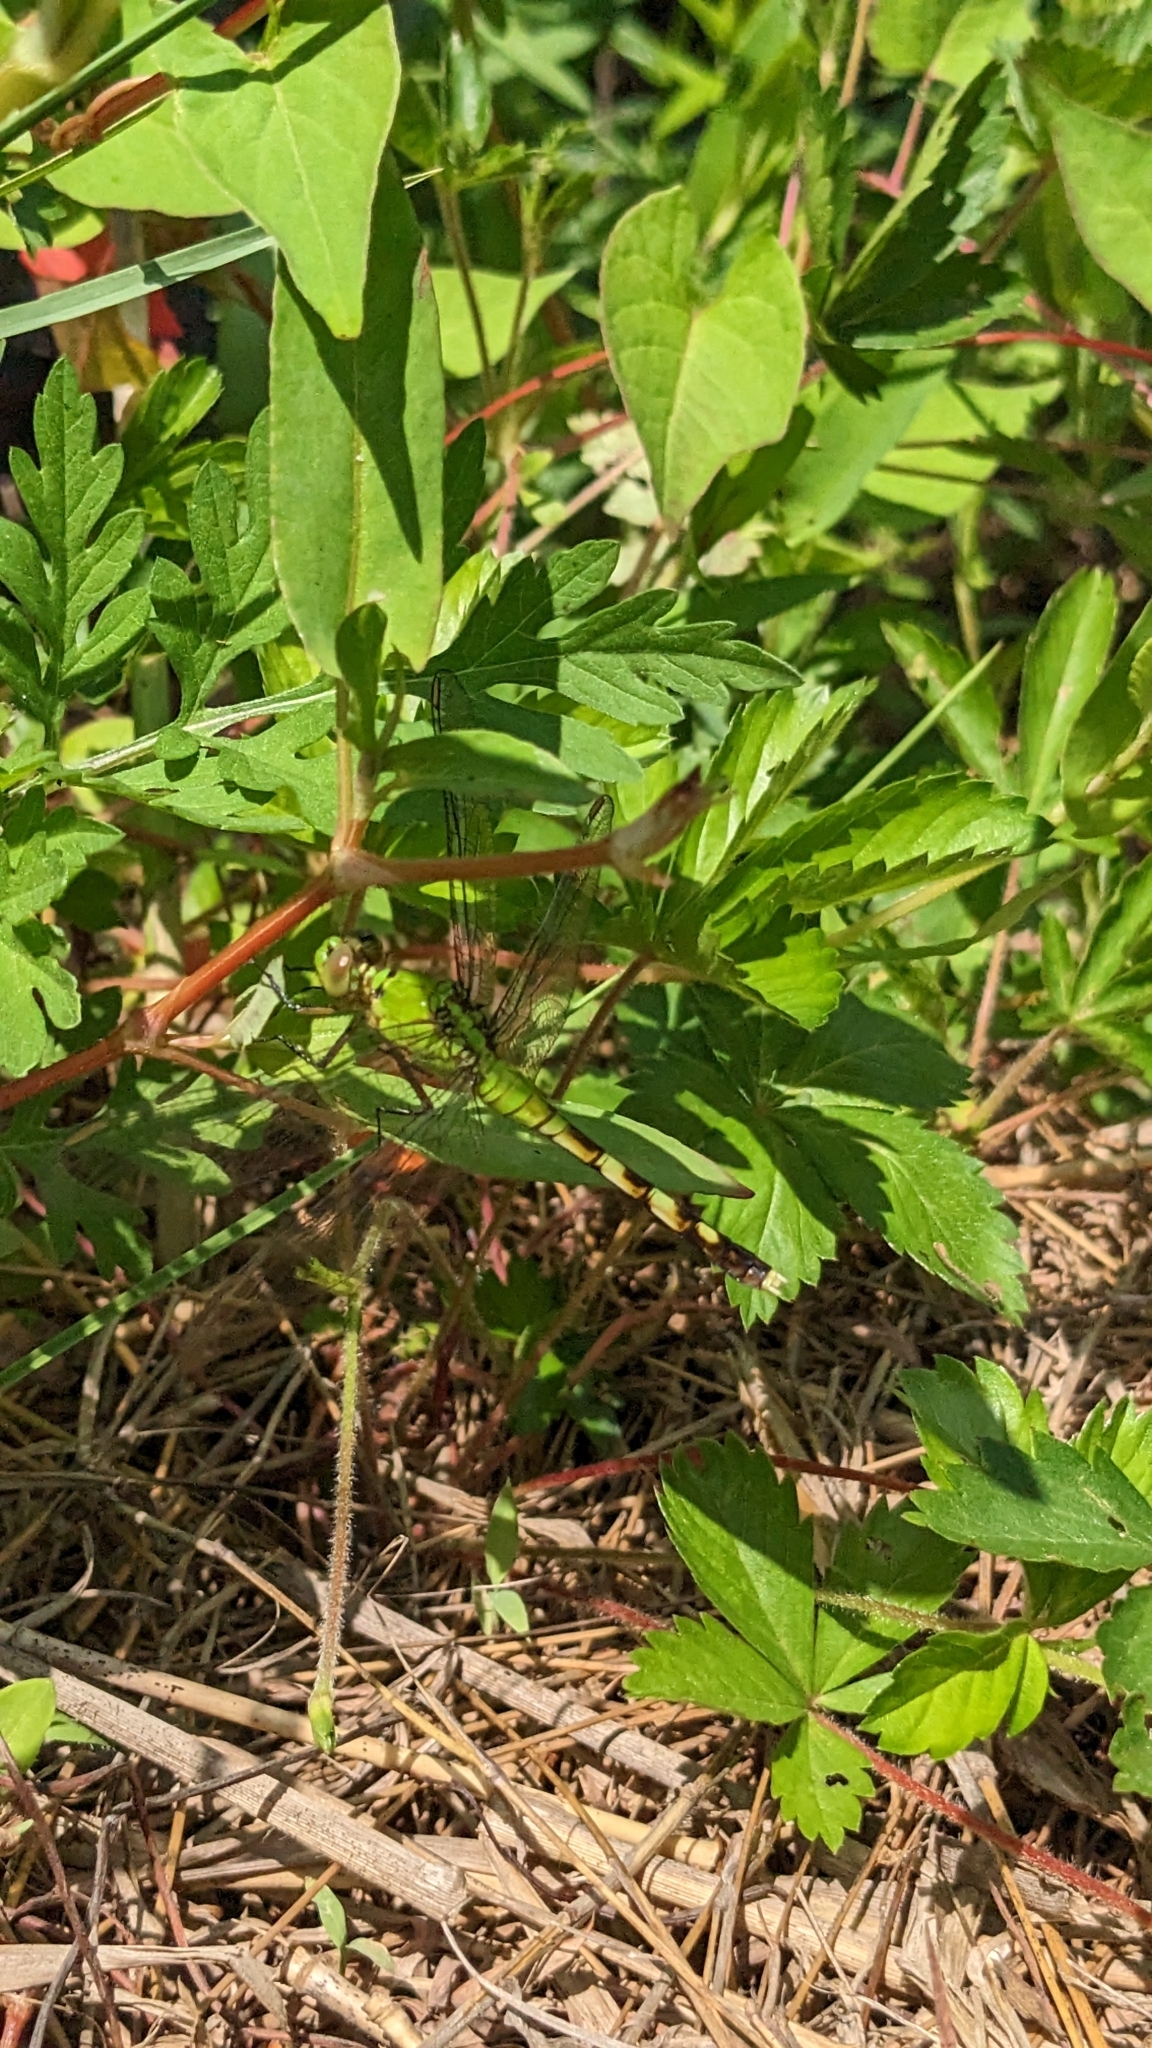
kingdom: Animalia
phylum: Arthropoda
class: Insecta
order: Odonata
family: Libellulidae
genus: Erythemis
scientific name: Erythemis simplicicollis
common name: Eastern pondhawk
